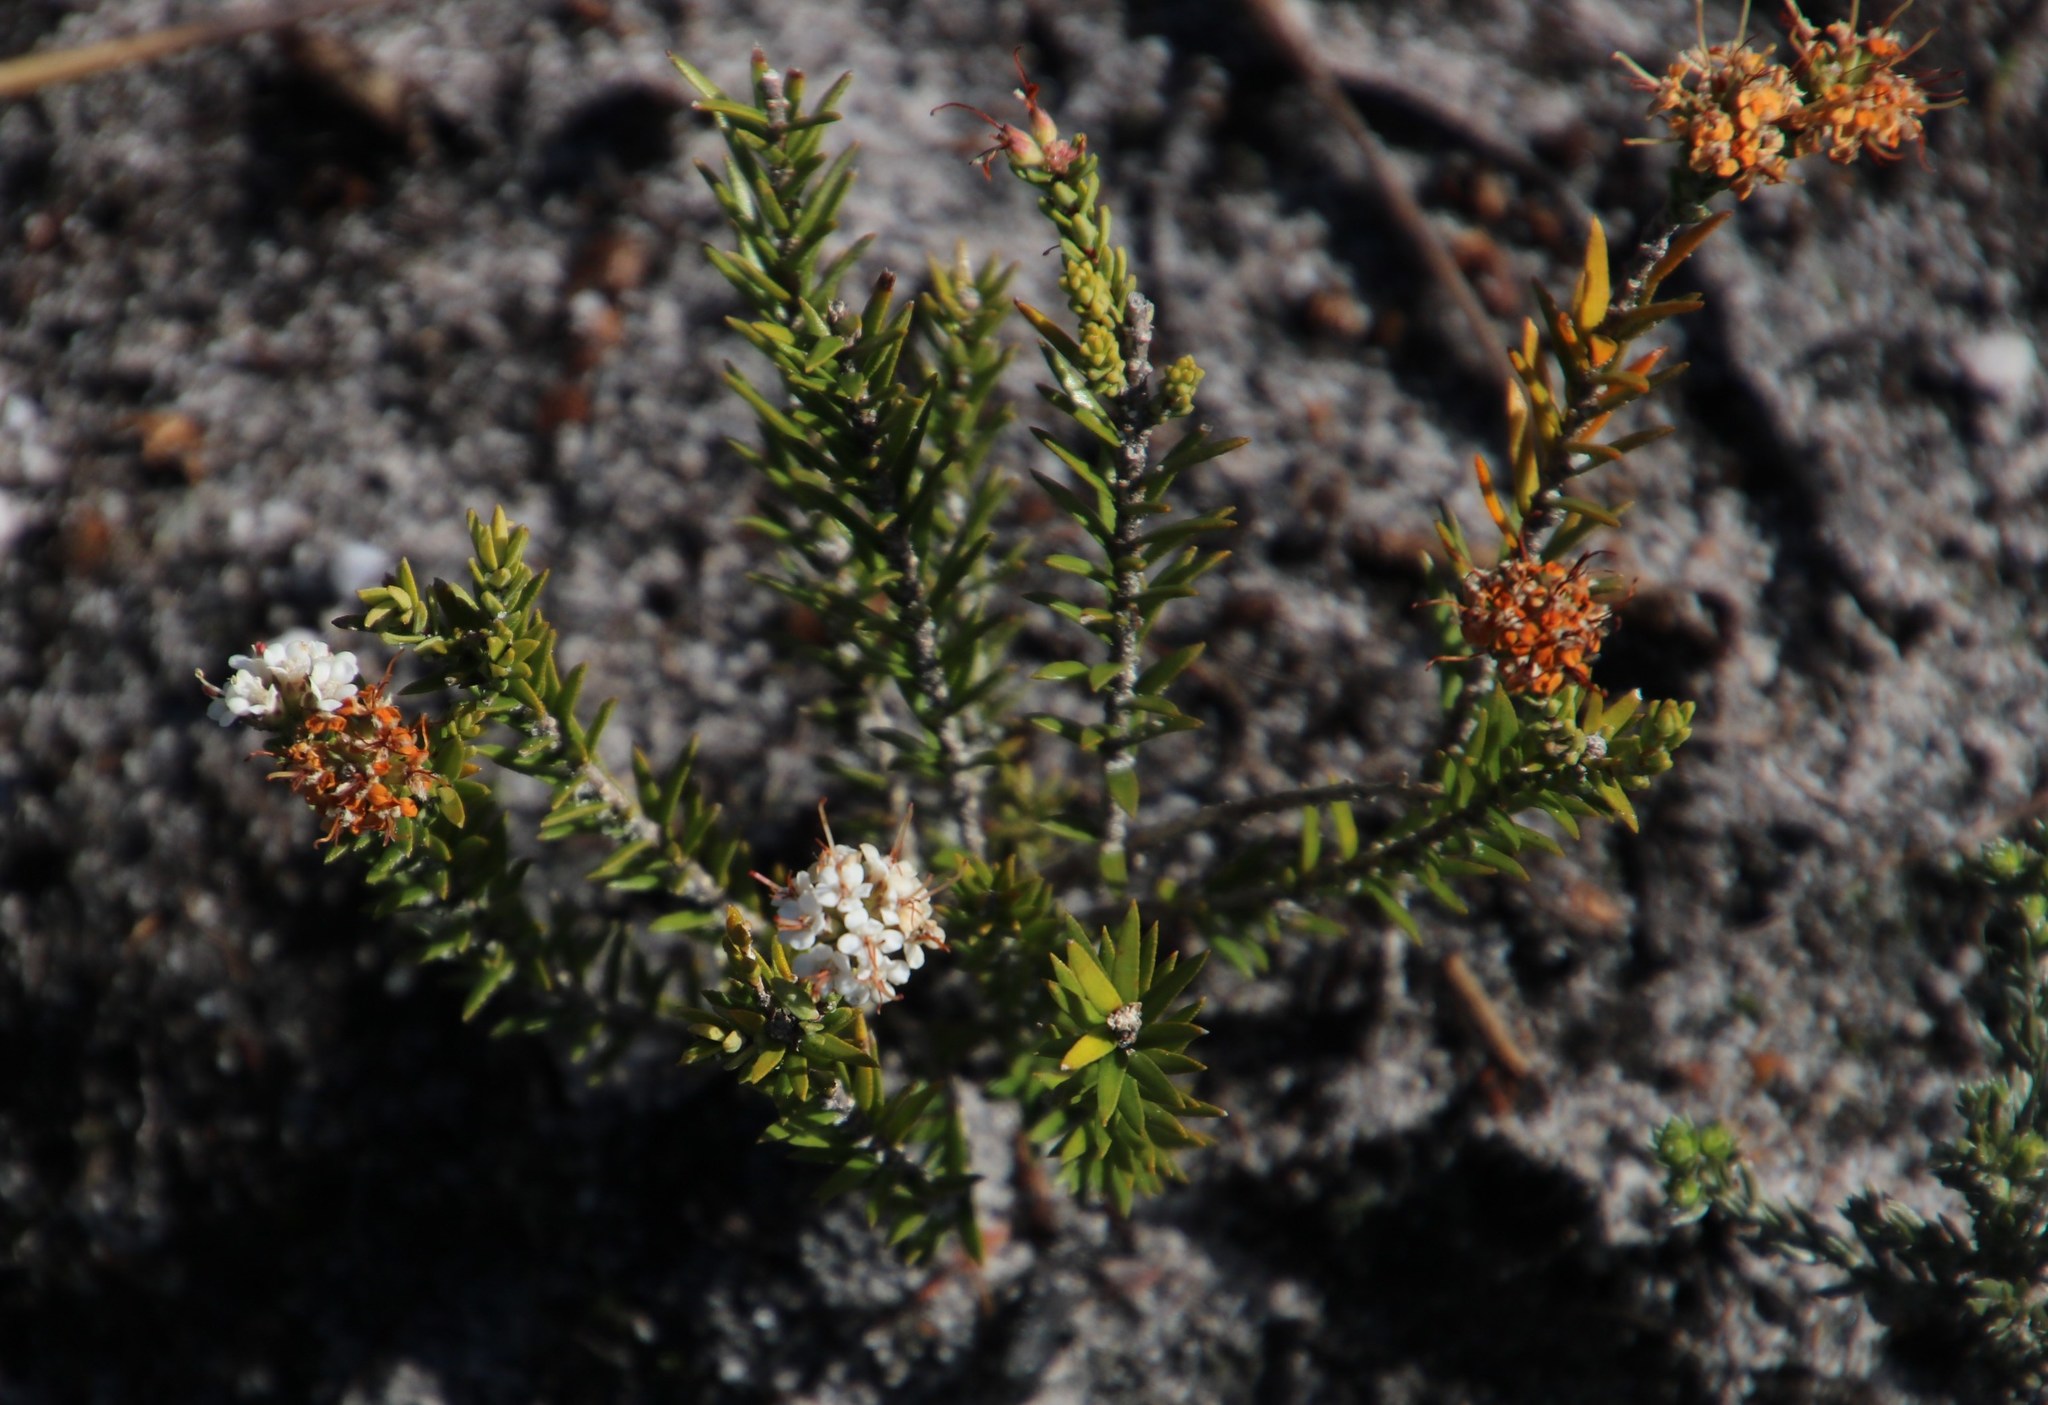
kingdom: Plantae
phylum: Tracheophyta
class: Magnoliopsida
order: Sapindales
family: Rutaceae
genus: Macrostylis
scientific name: Macrostylis villosa
